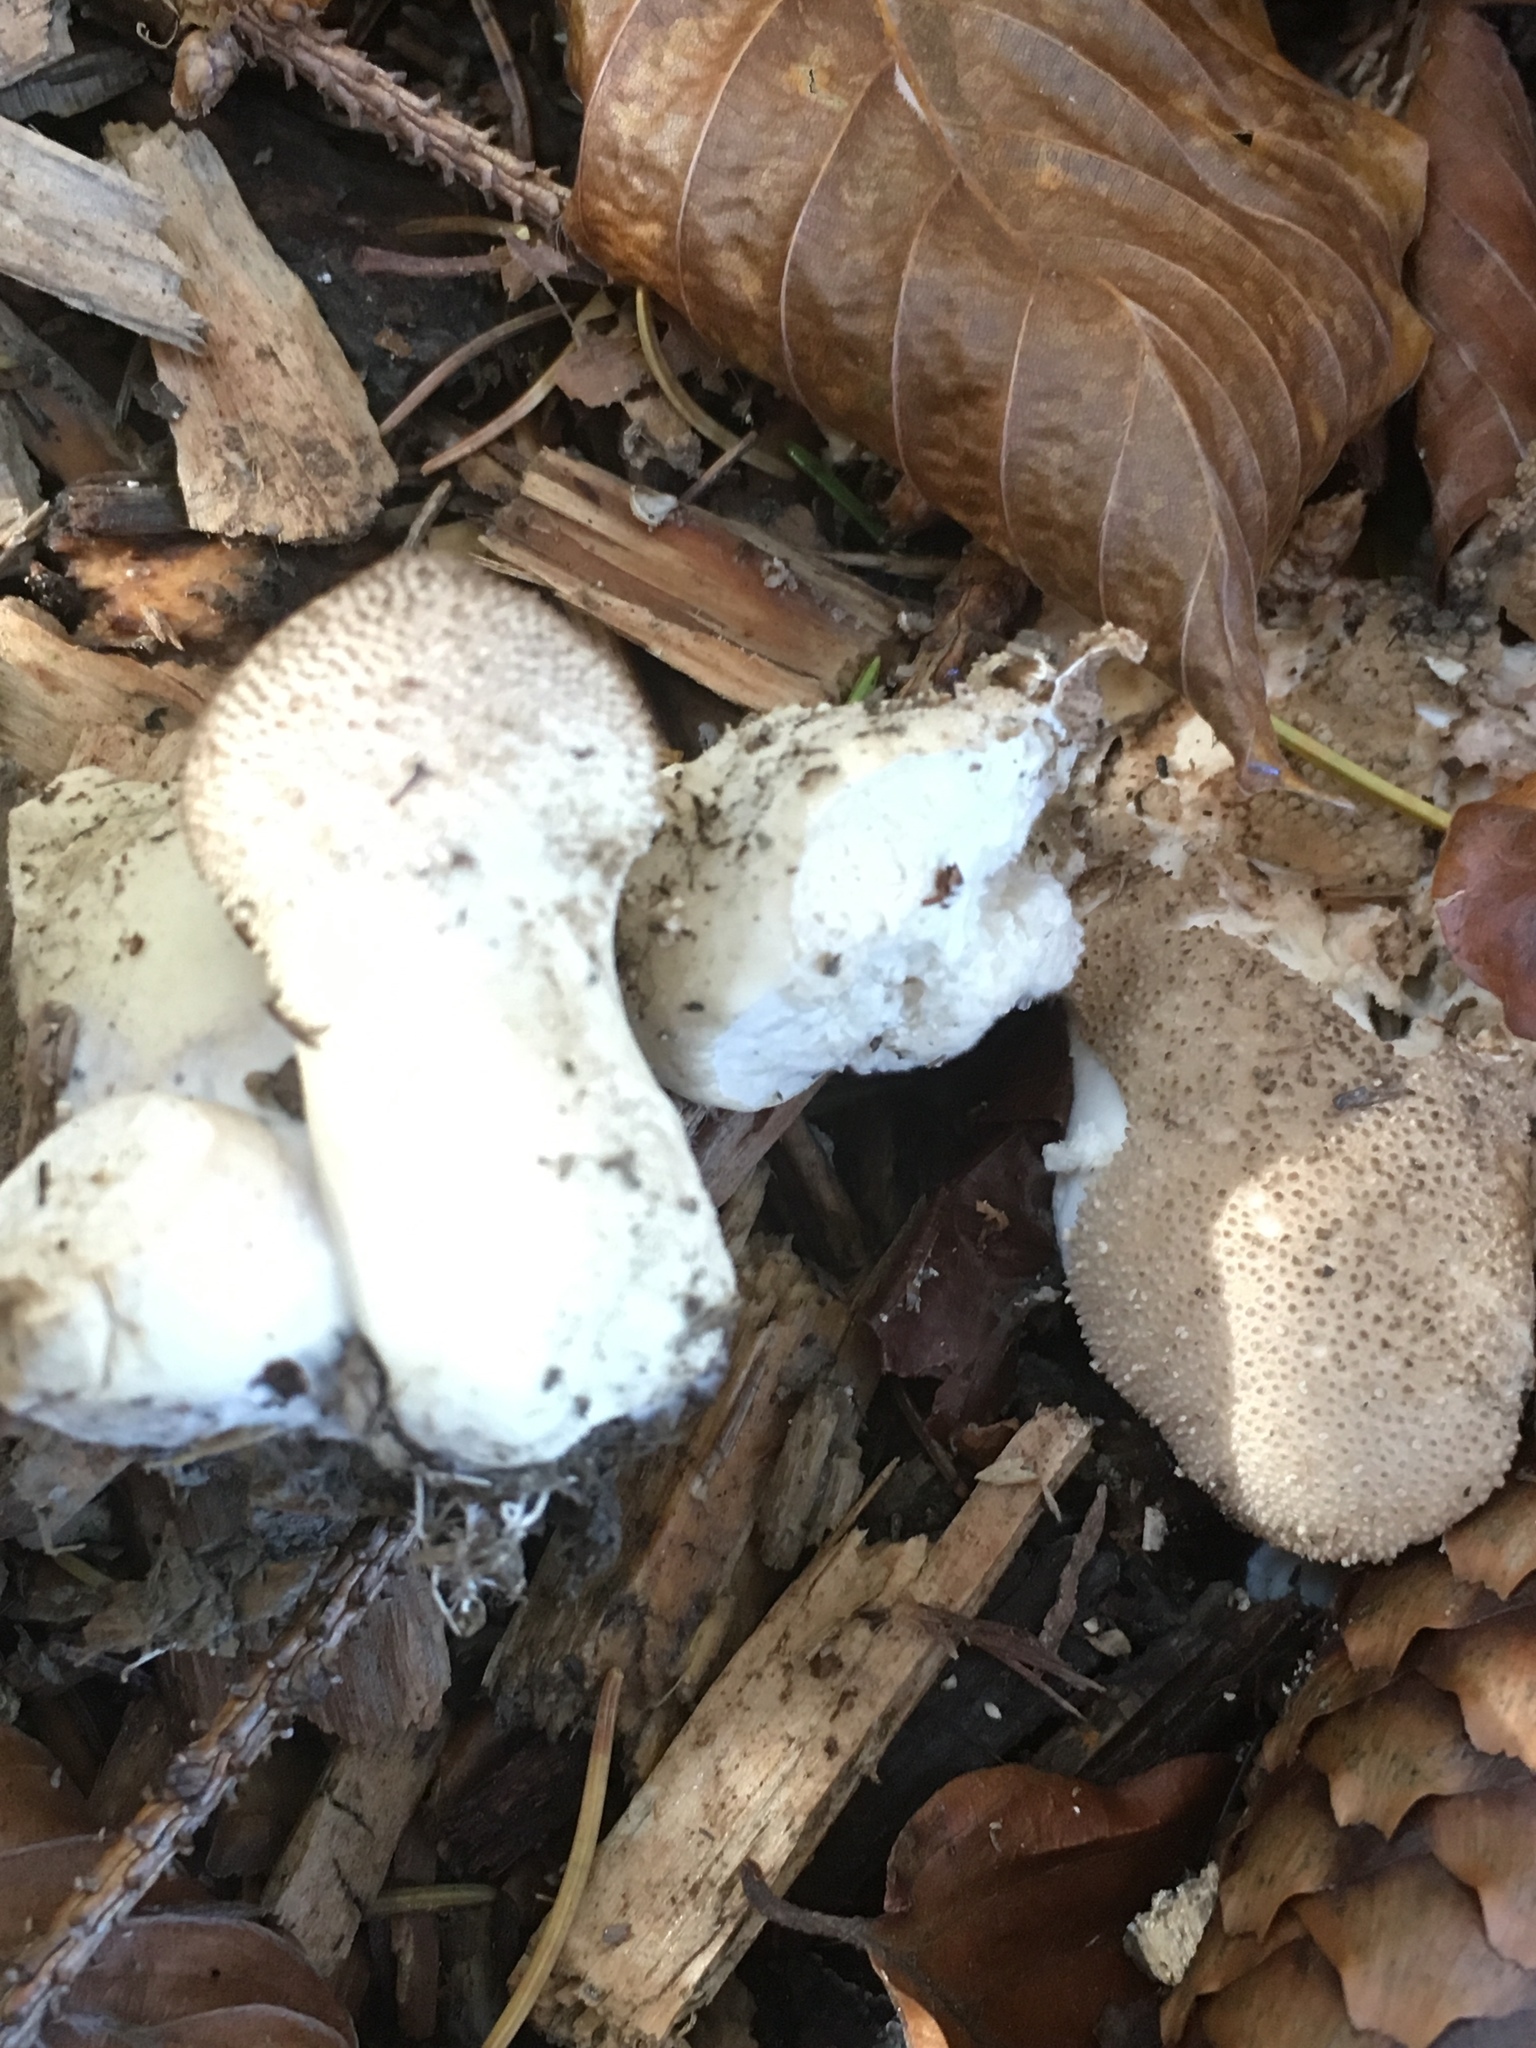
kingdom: Fungi
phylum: Basidiomycota
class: Agaricomycetes
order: Agaricales
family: Lycoperdaceae
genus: Lycoperdon
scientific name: Lycoperdon perlatum
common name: Common puffball
